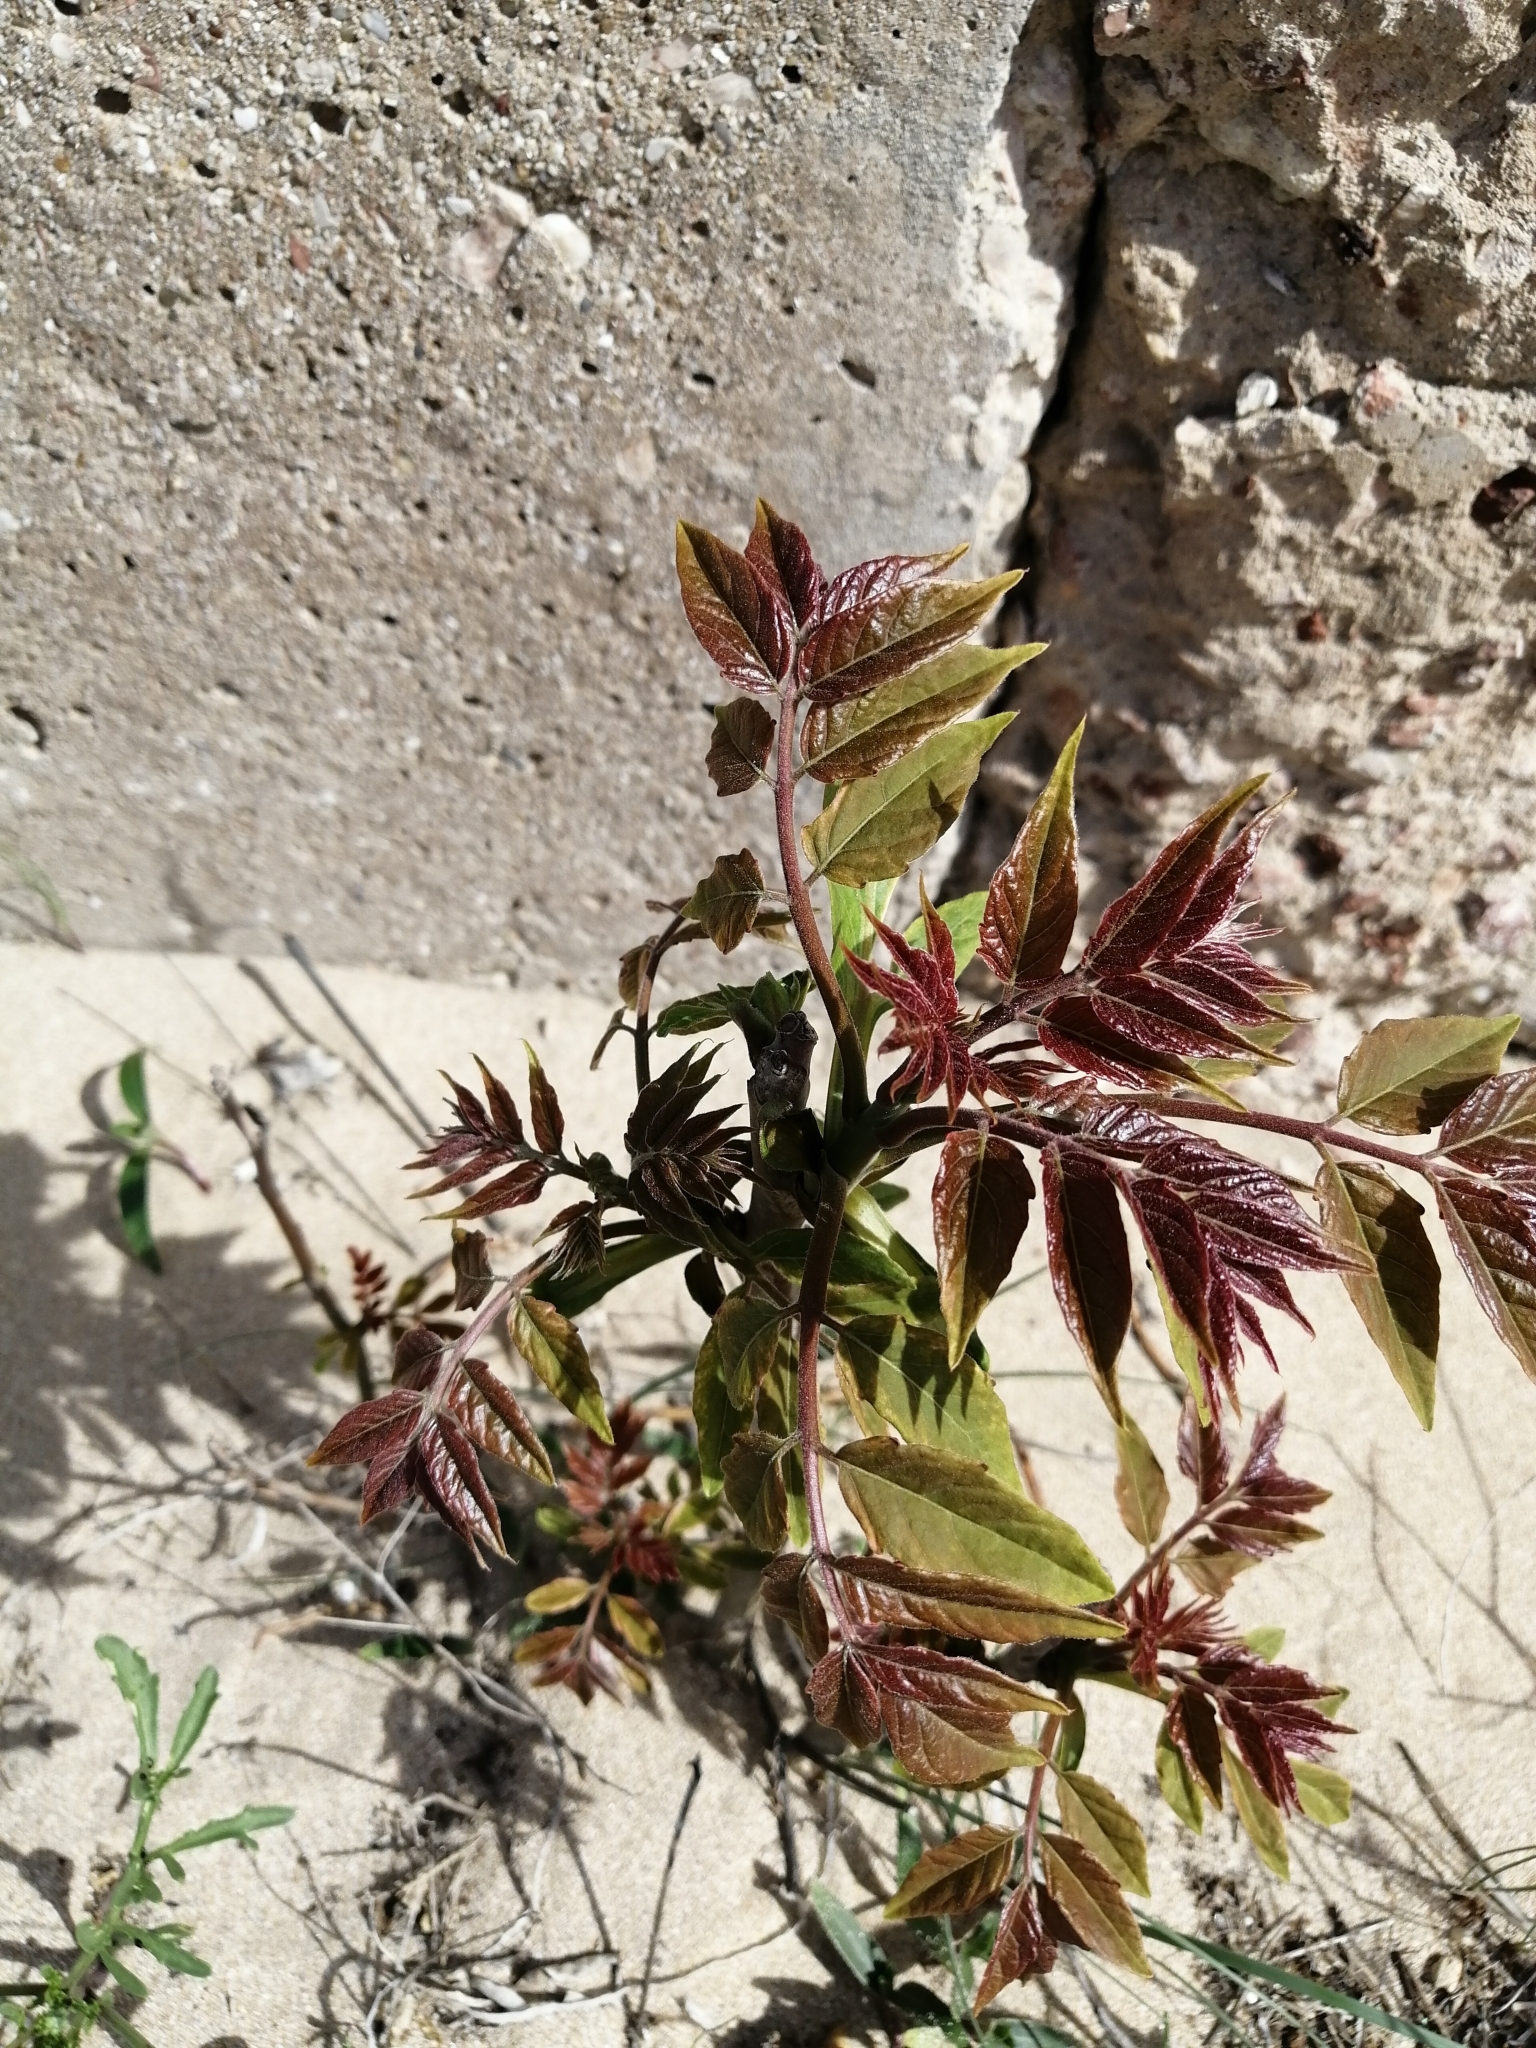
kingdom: Plantae
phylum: Tracheophyta
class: Magnoliopsida
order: Sapindales
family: Simaroubaceae
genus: Ailanthus
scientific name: Ailanthus altissima
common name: Tree-of-heaven
